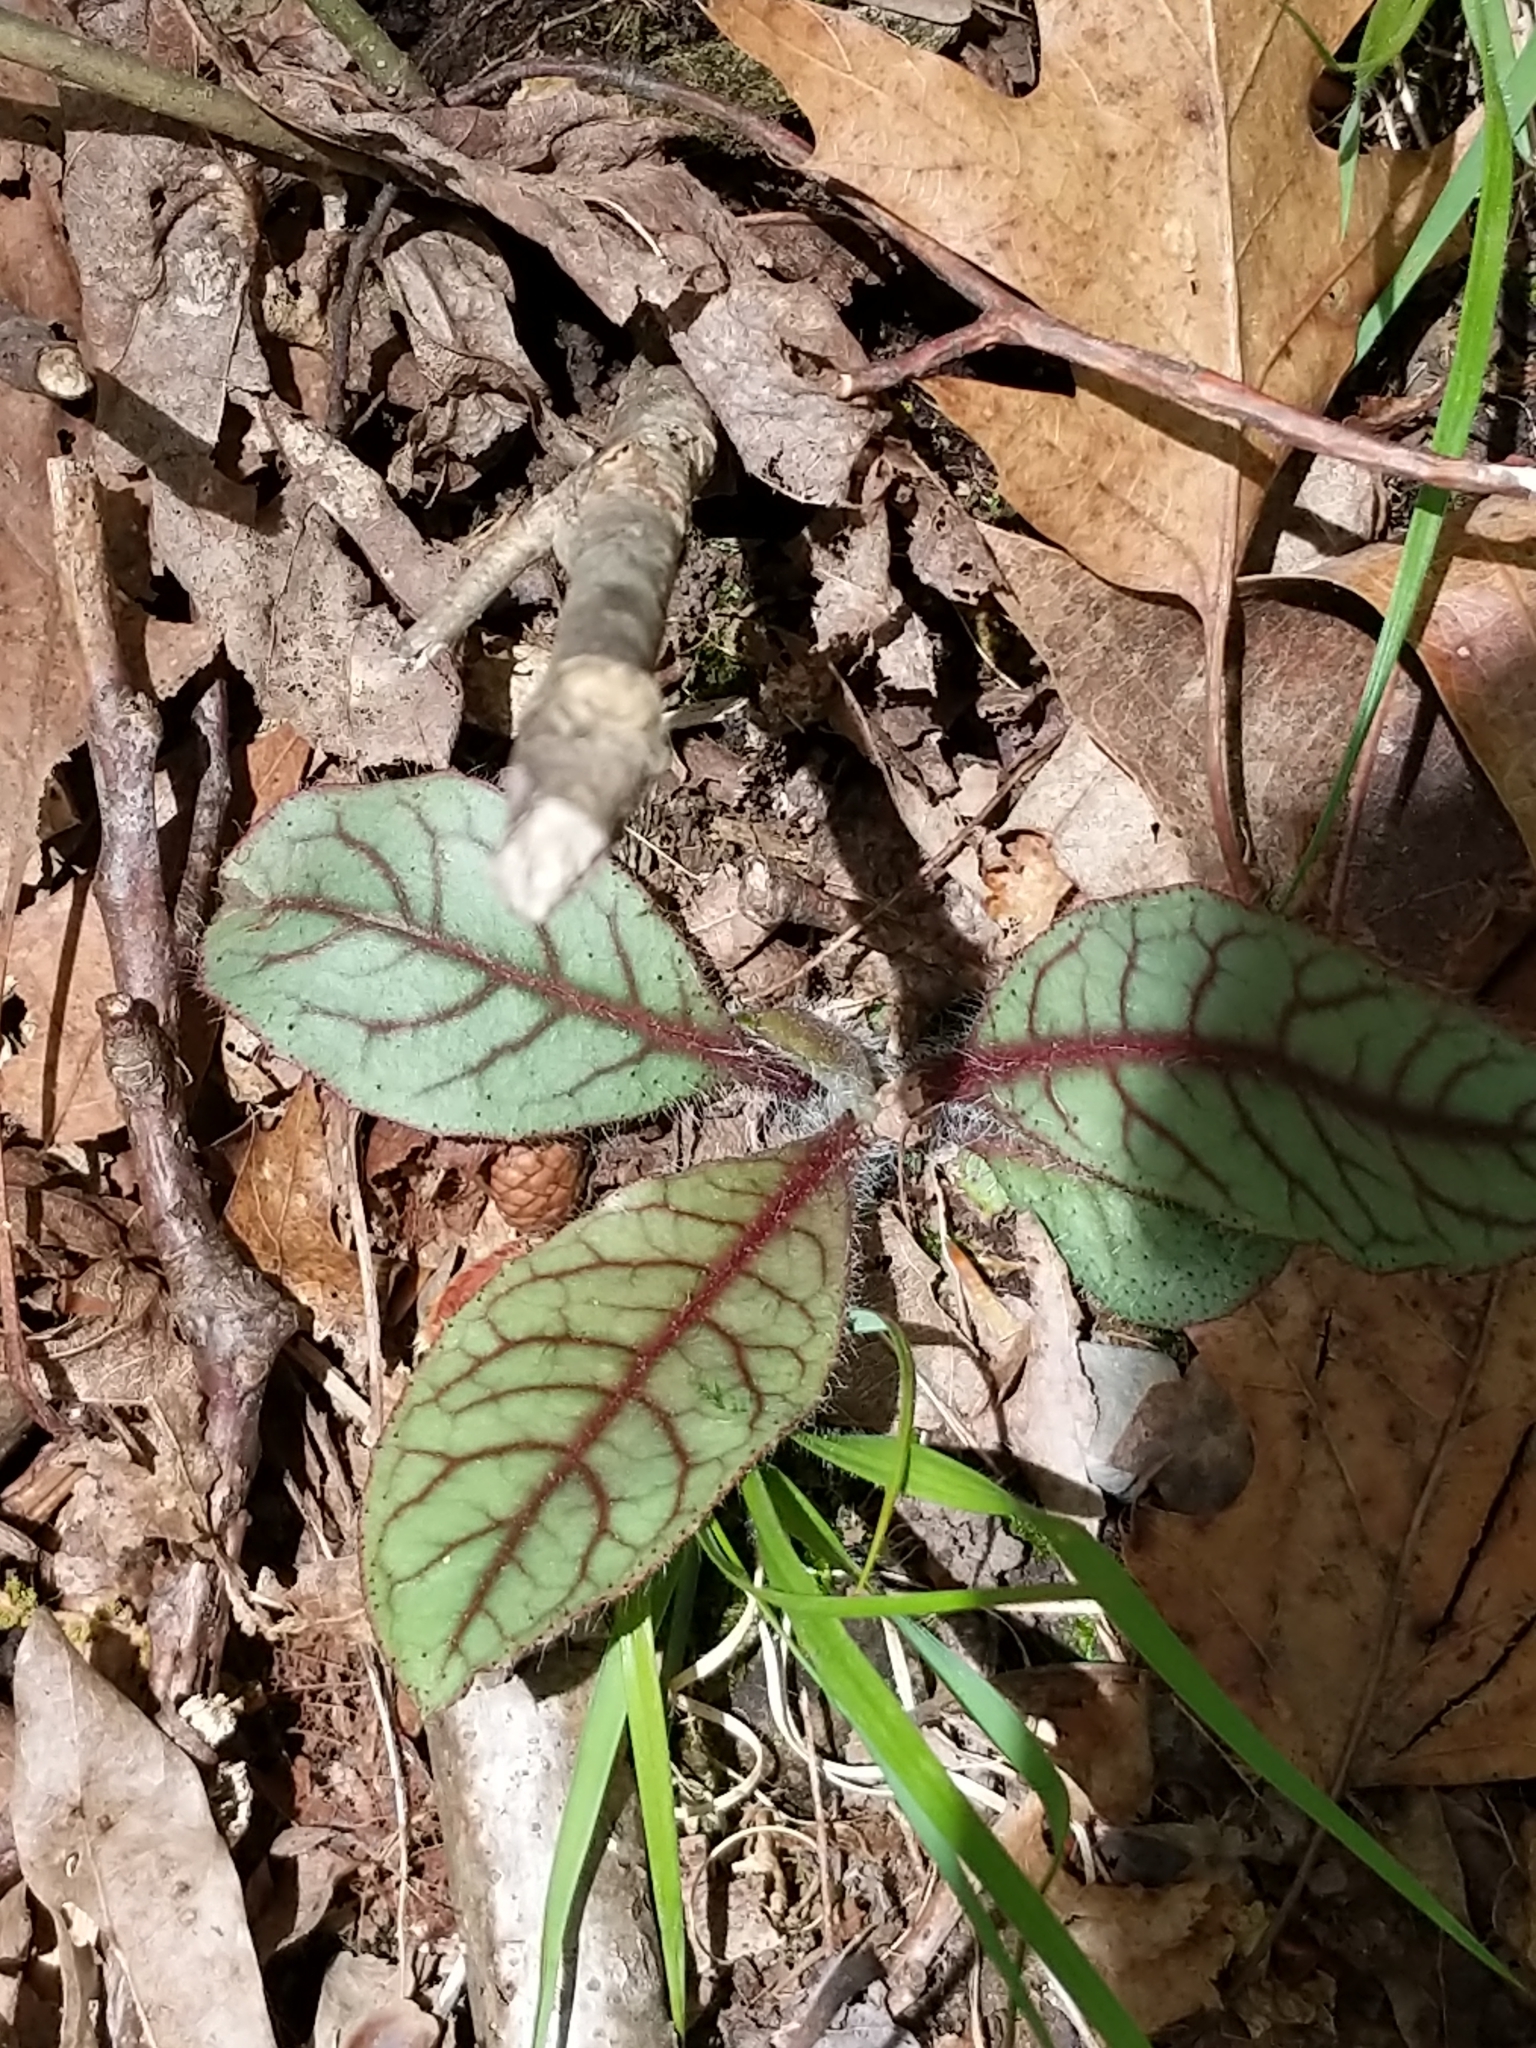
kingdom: Plantae
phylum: Tracheophyta
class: Magnoliopsida
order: Asterales
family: Asteraceae
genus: Hieracium
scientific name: Hieracium venosum
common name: Rattlesnake hawkweed
